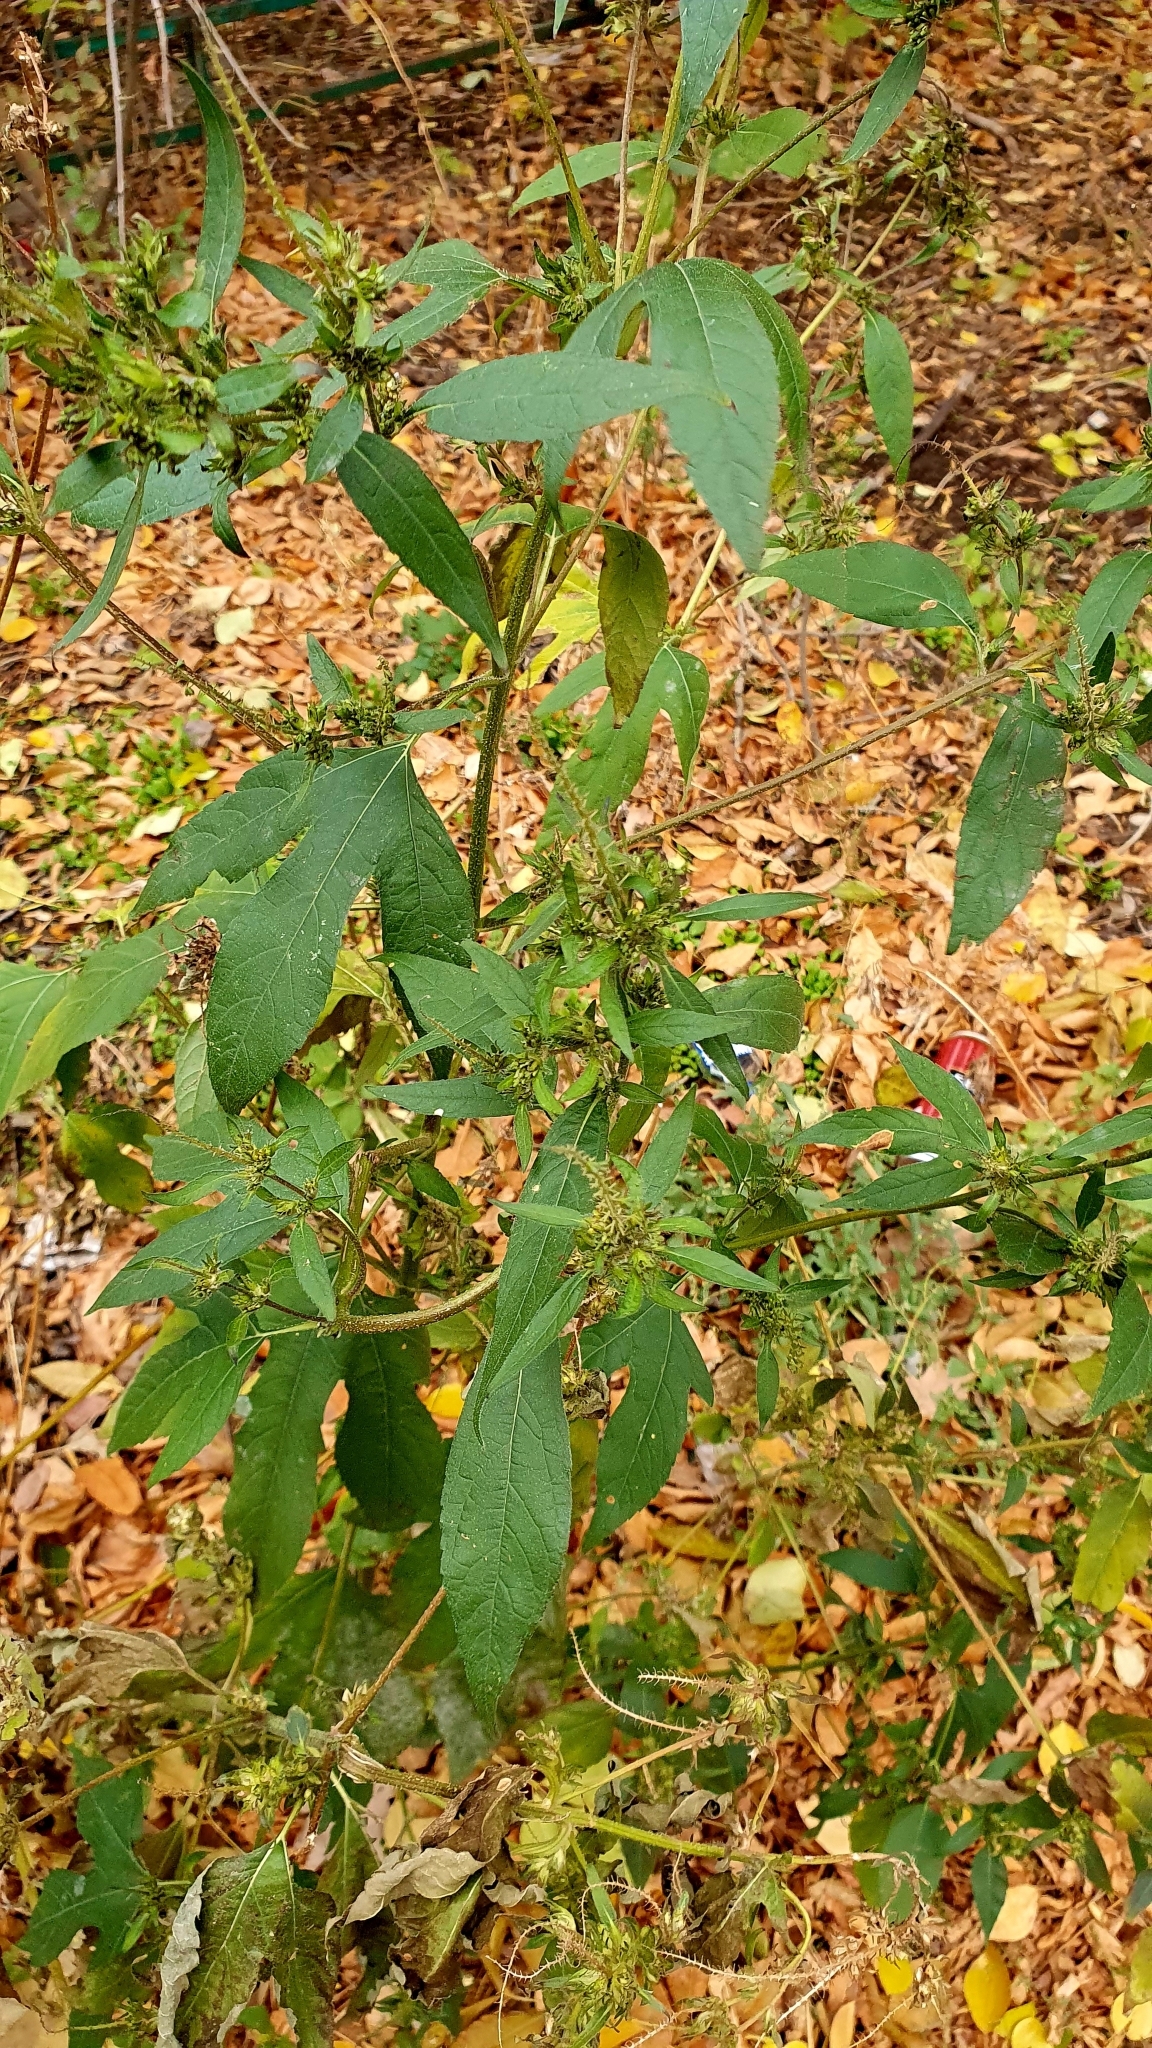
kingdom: Plantae
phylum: Tracheophyta
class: Magnoliopsida
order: Asterales
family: Asteraceae
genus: Ambrosia
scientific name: Ambrosia trifida
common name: Giant ragweed
